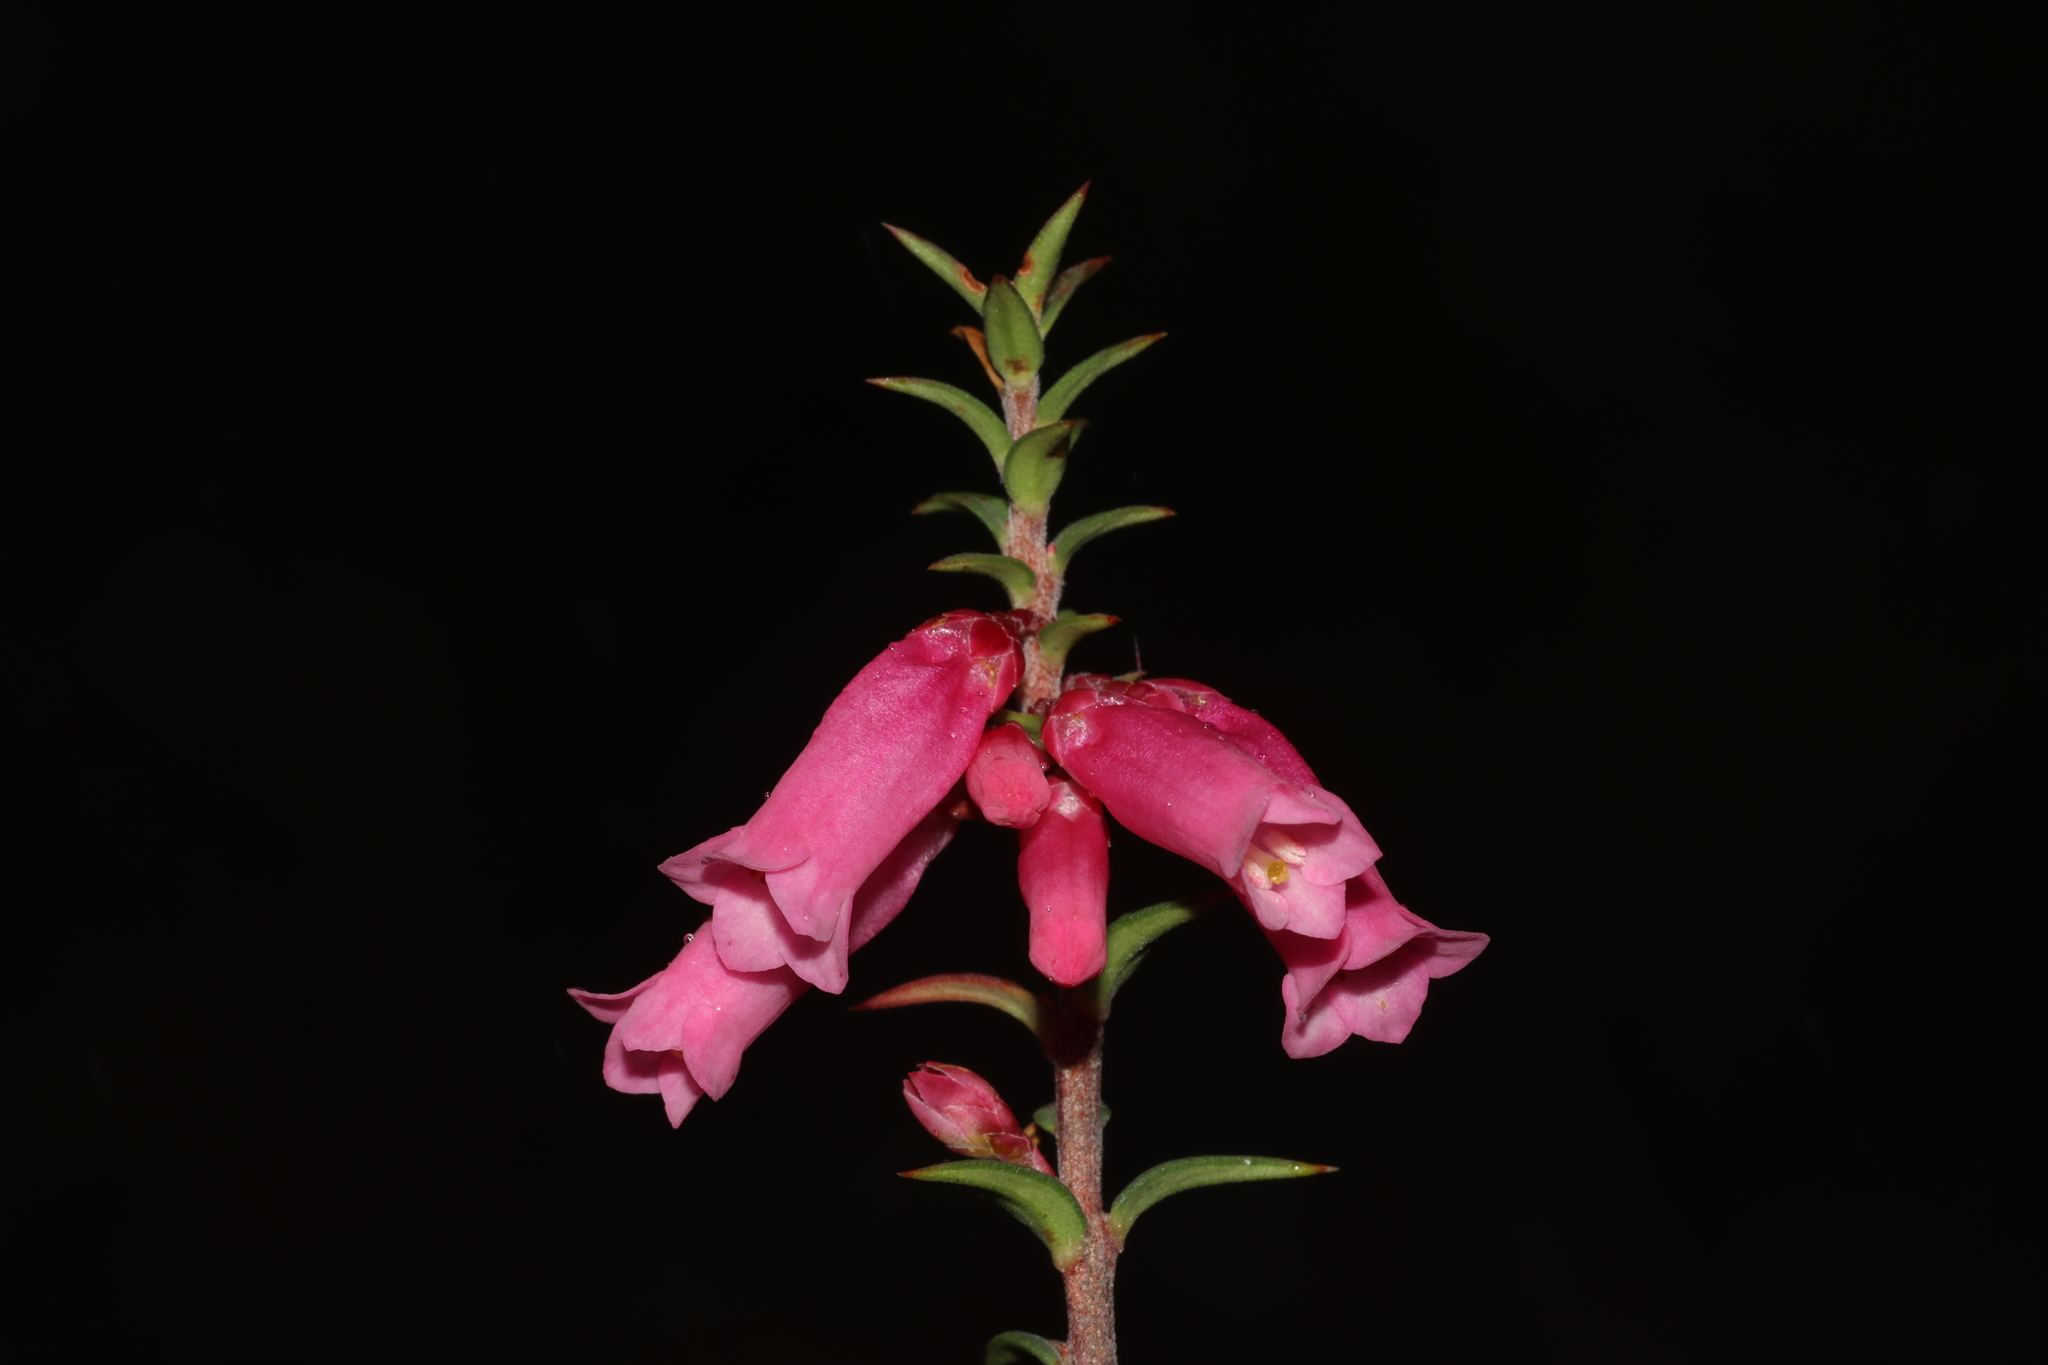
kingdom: Plantae
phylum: Tracheophyta
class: Magnoliopsida
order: Ericales
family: Ericaceae
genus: Epacris
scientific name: Epacris impressa
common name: Common-heath
